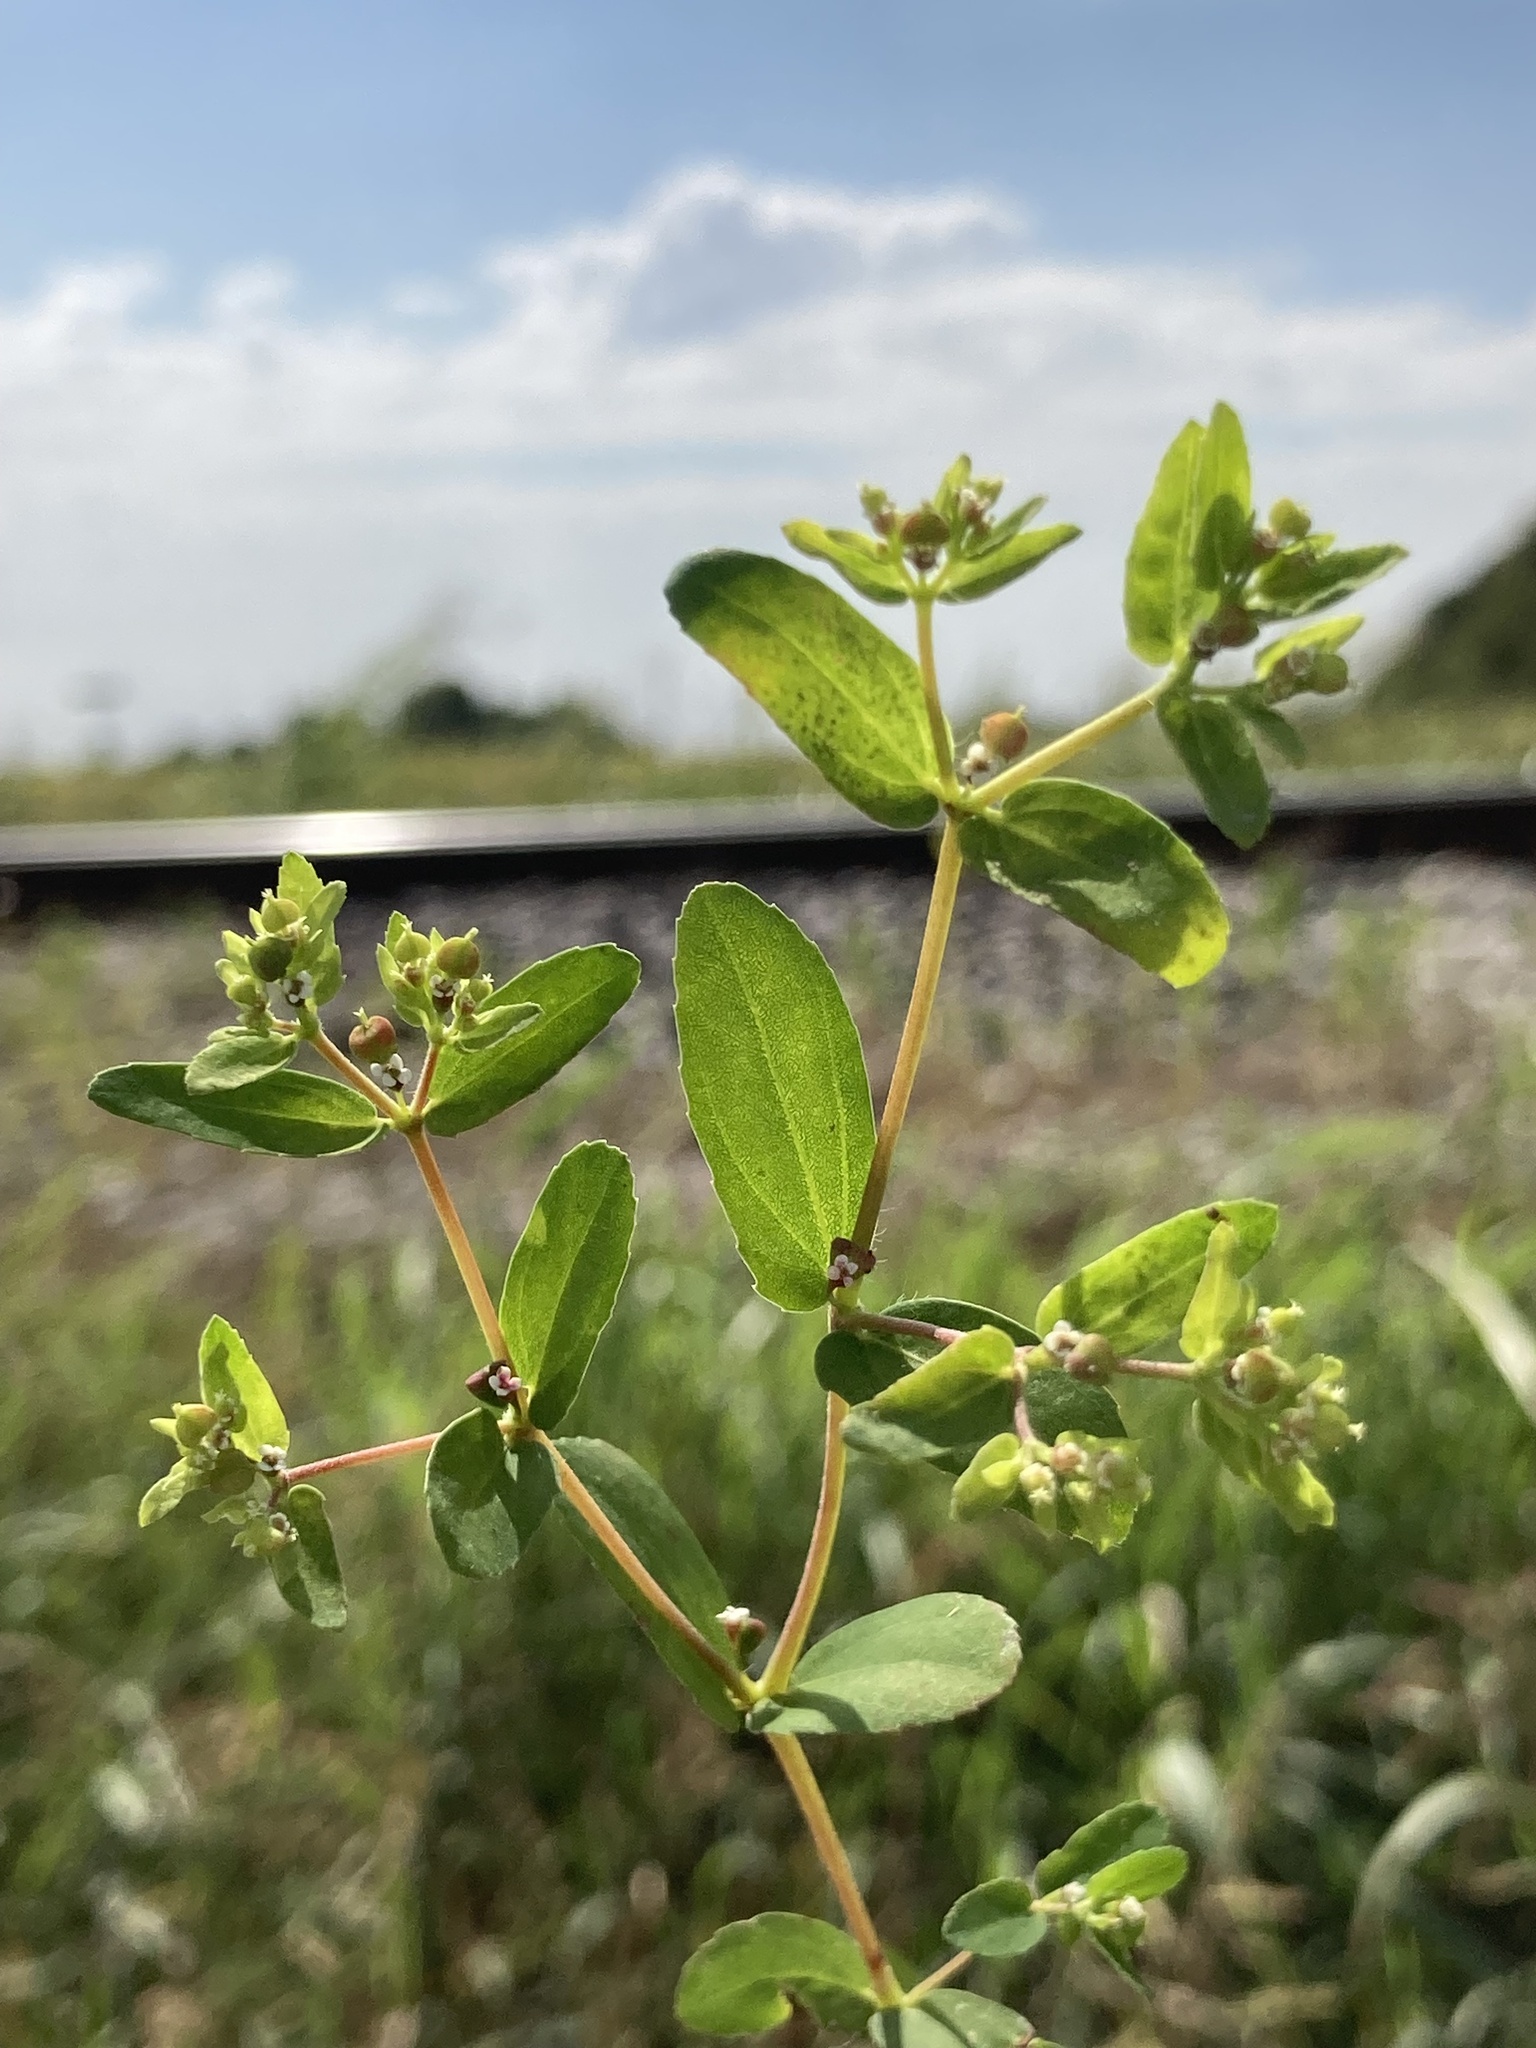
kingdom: Plantae
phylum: Tracheophyta
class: Magnoliopsida
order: Malpighiales
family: Euphorbiaceae
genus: Euphorbia
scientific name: Euphorbia nutans
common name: Eyebane
